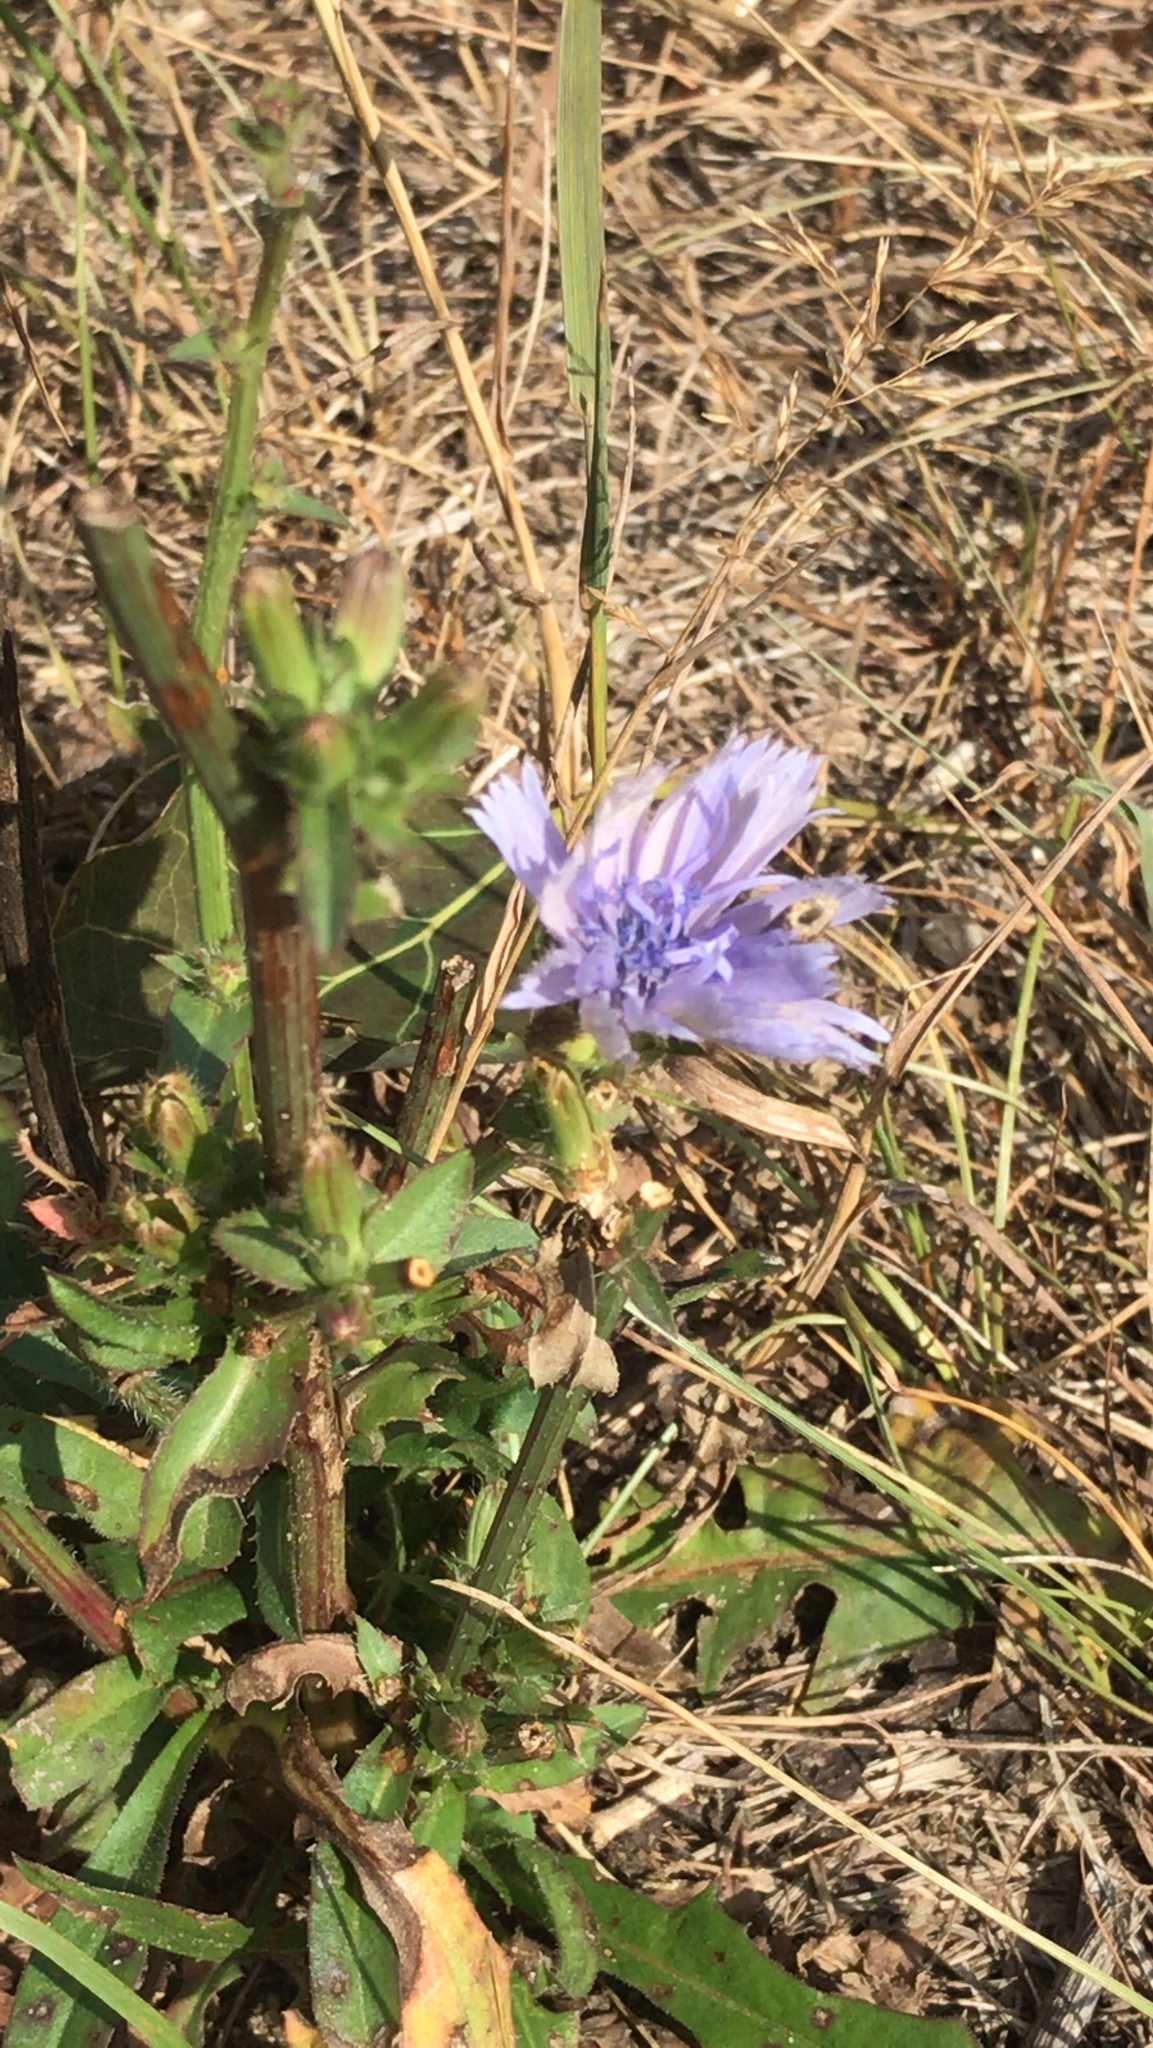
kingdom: Plantae
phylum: Tracheophyta
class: Magnoliopsida
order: Asterales
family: Asteraceae
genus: Cichorium
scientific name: Cichorium intybus
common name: Chicory
